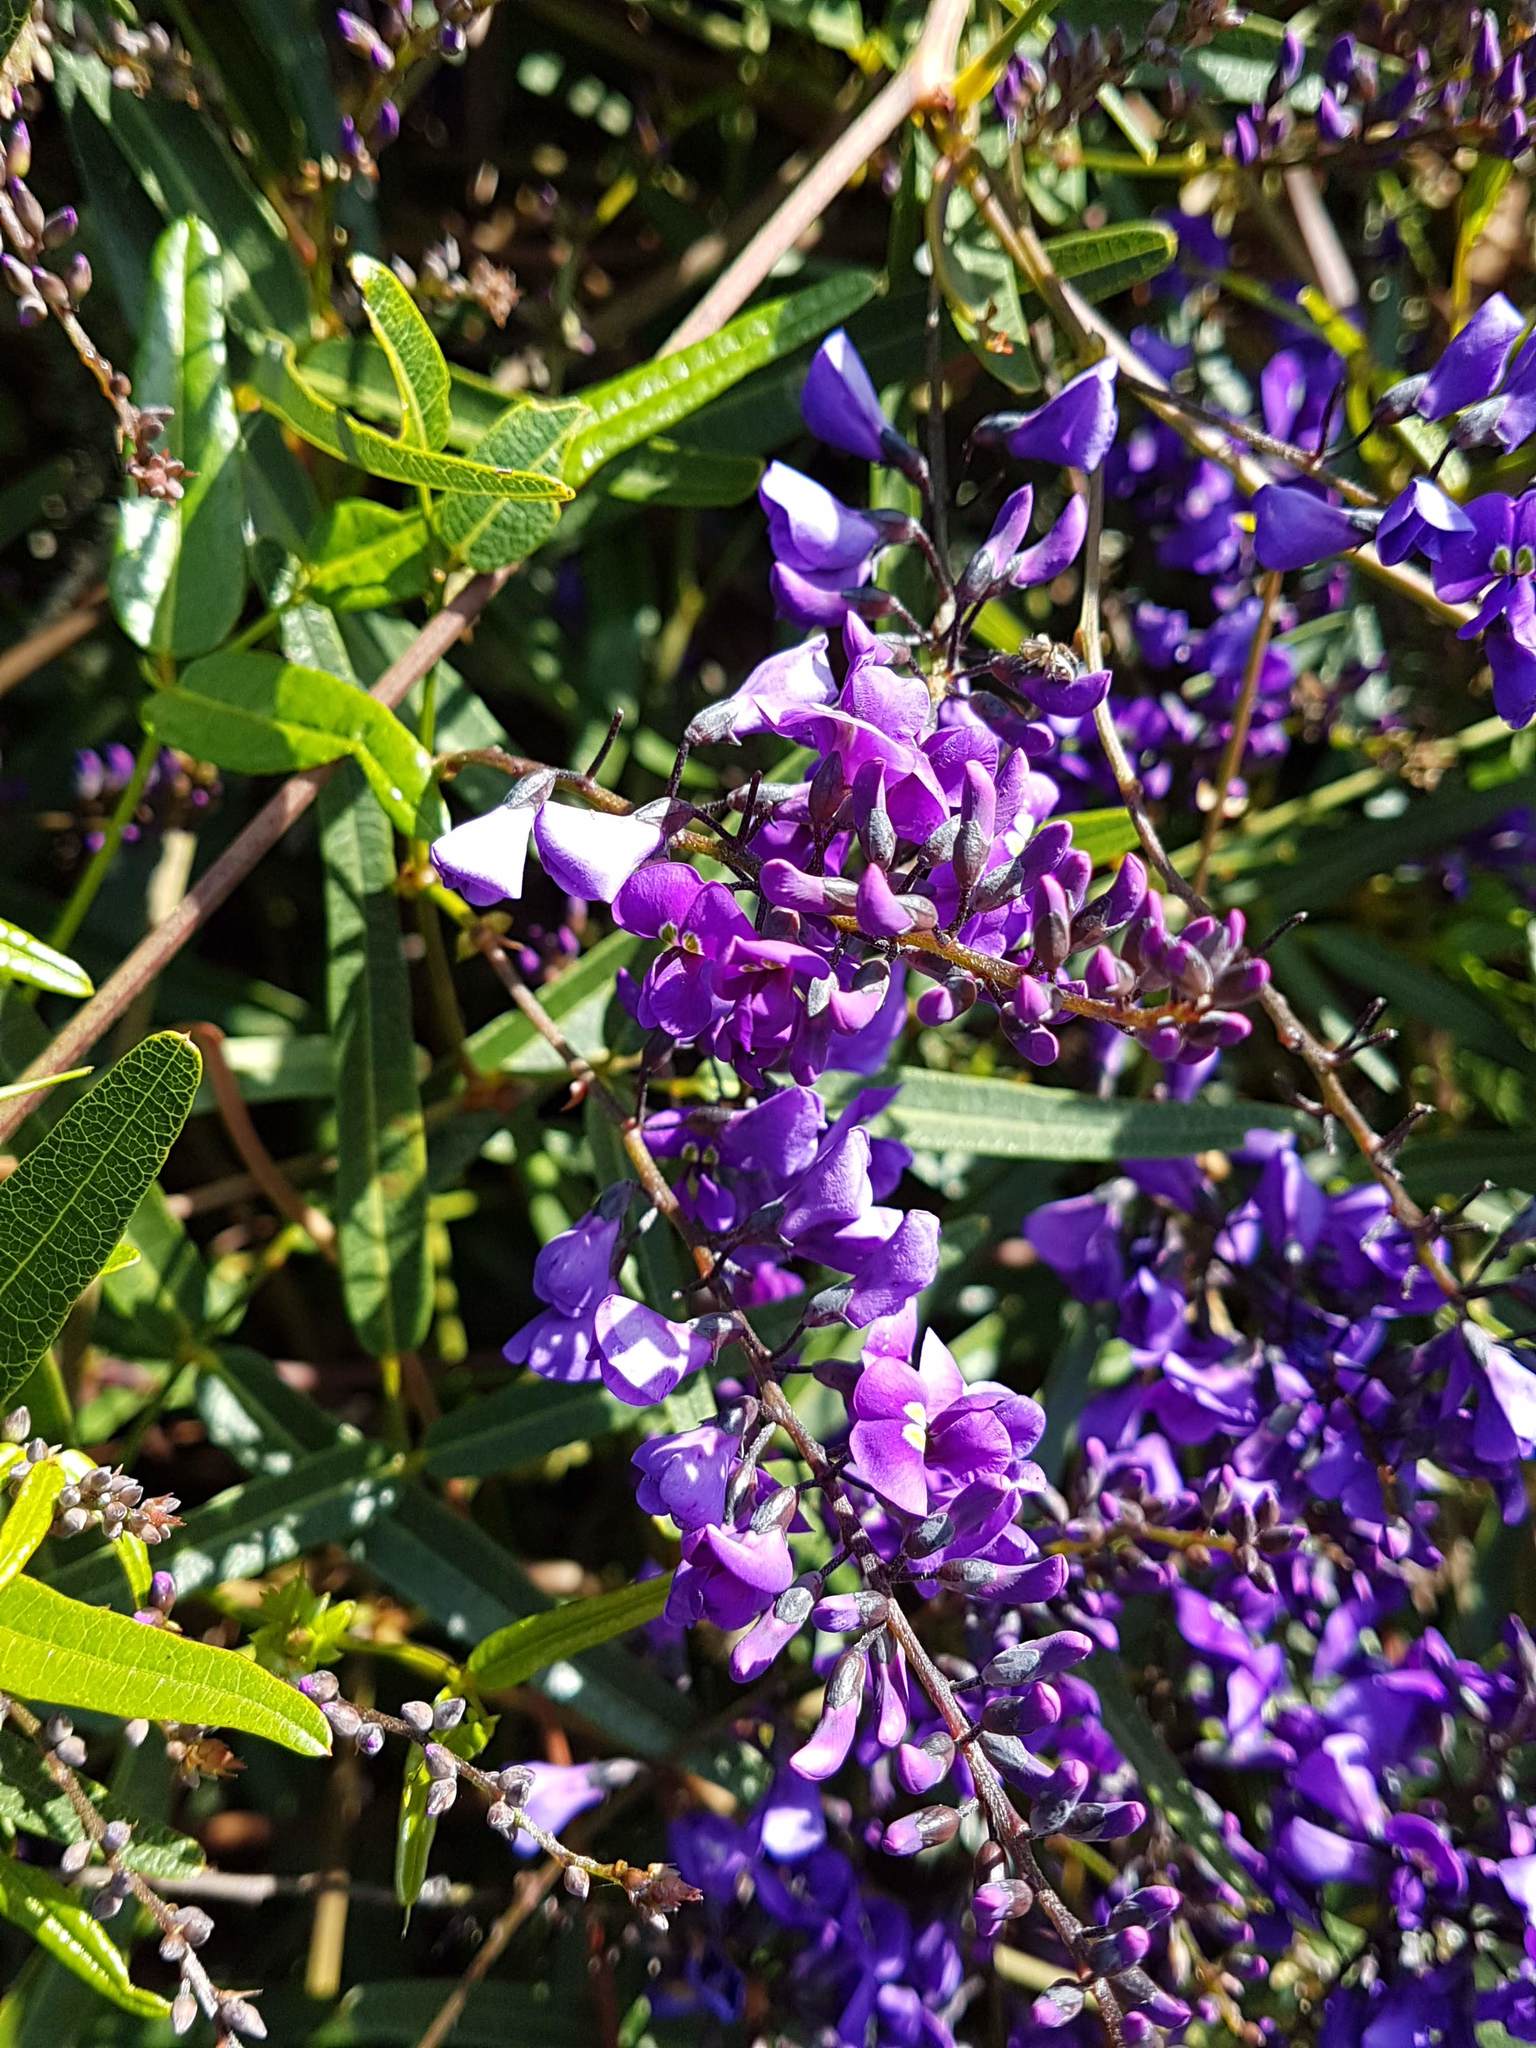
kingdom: Plantae
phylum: Tracheophyta
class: Magnoliopsida
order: Fabales
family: Fabaceae
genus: Hardenbergia
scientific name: Hardenbergia comptoniana
